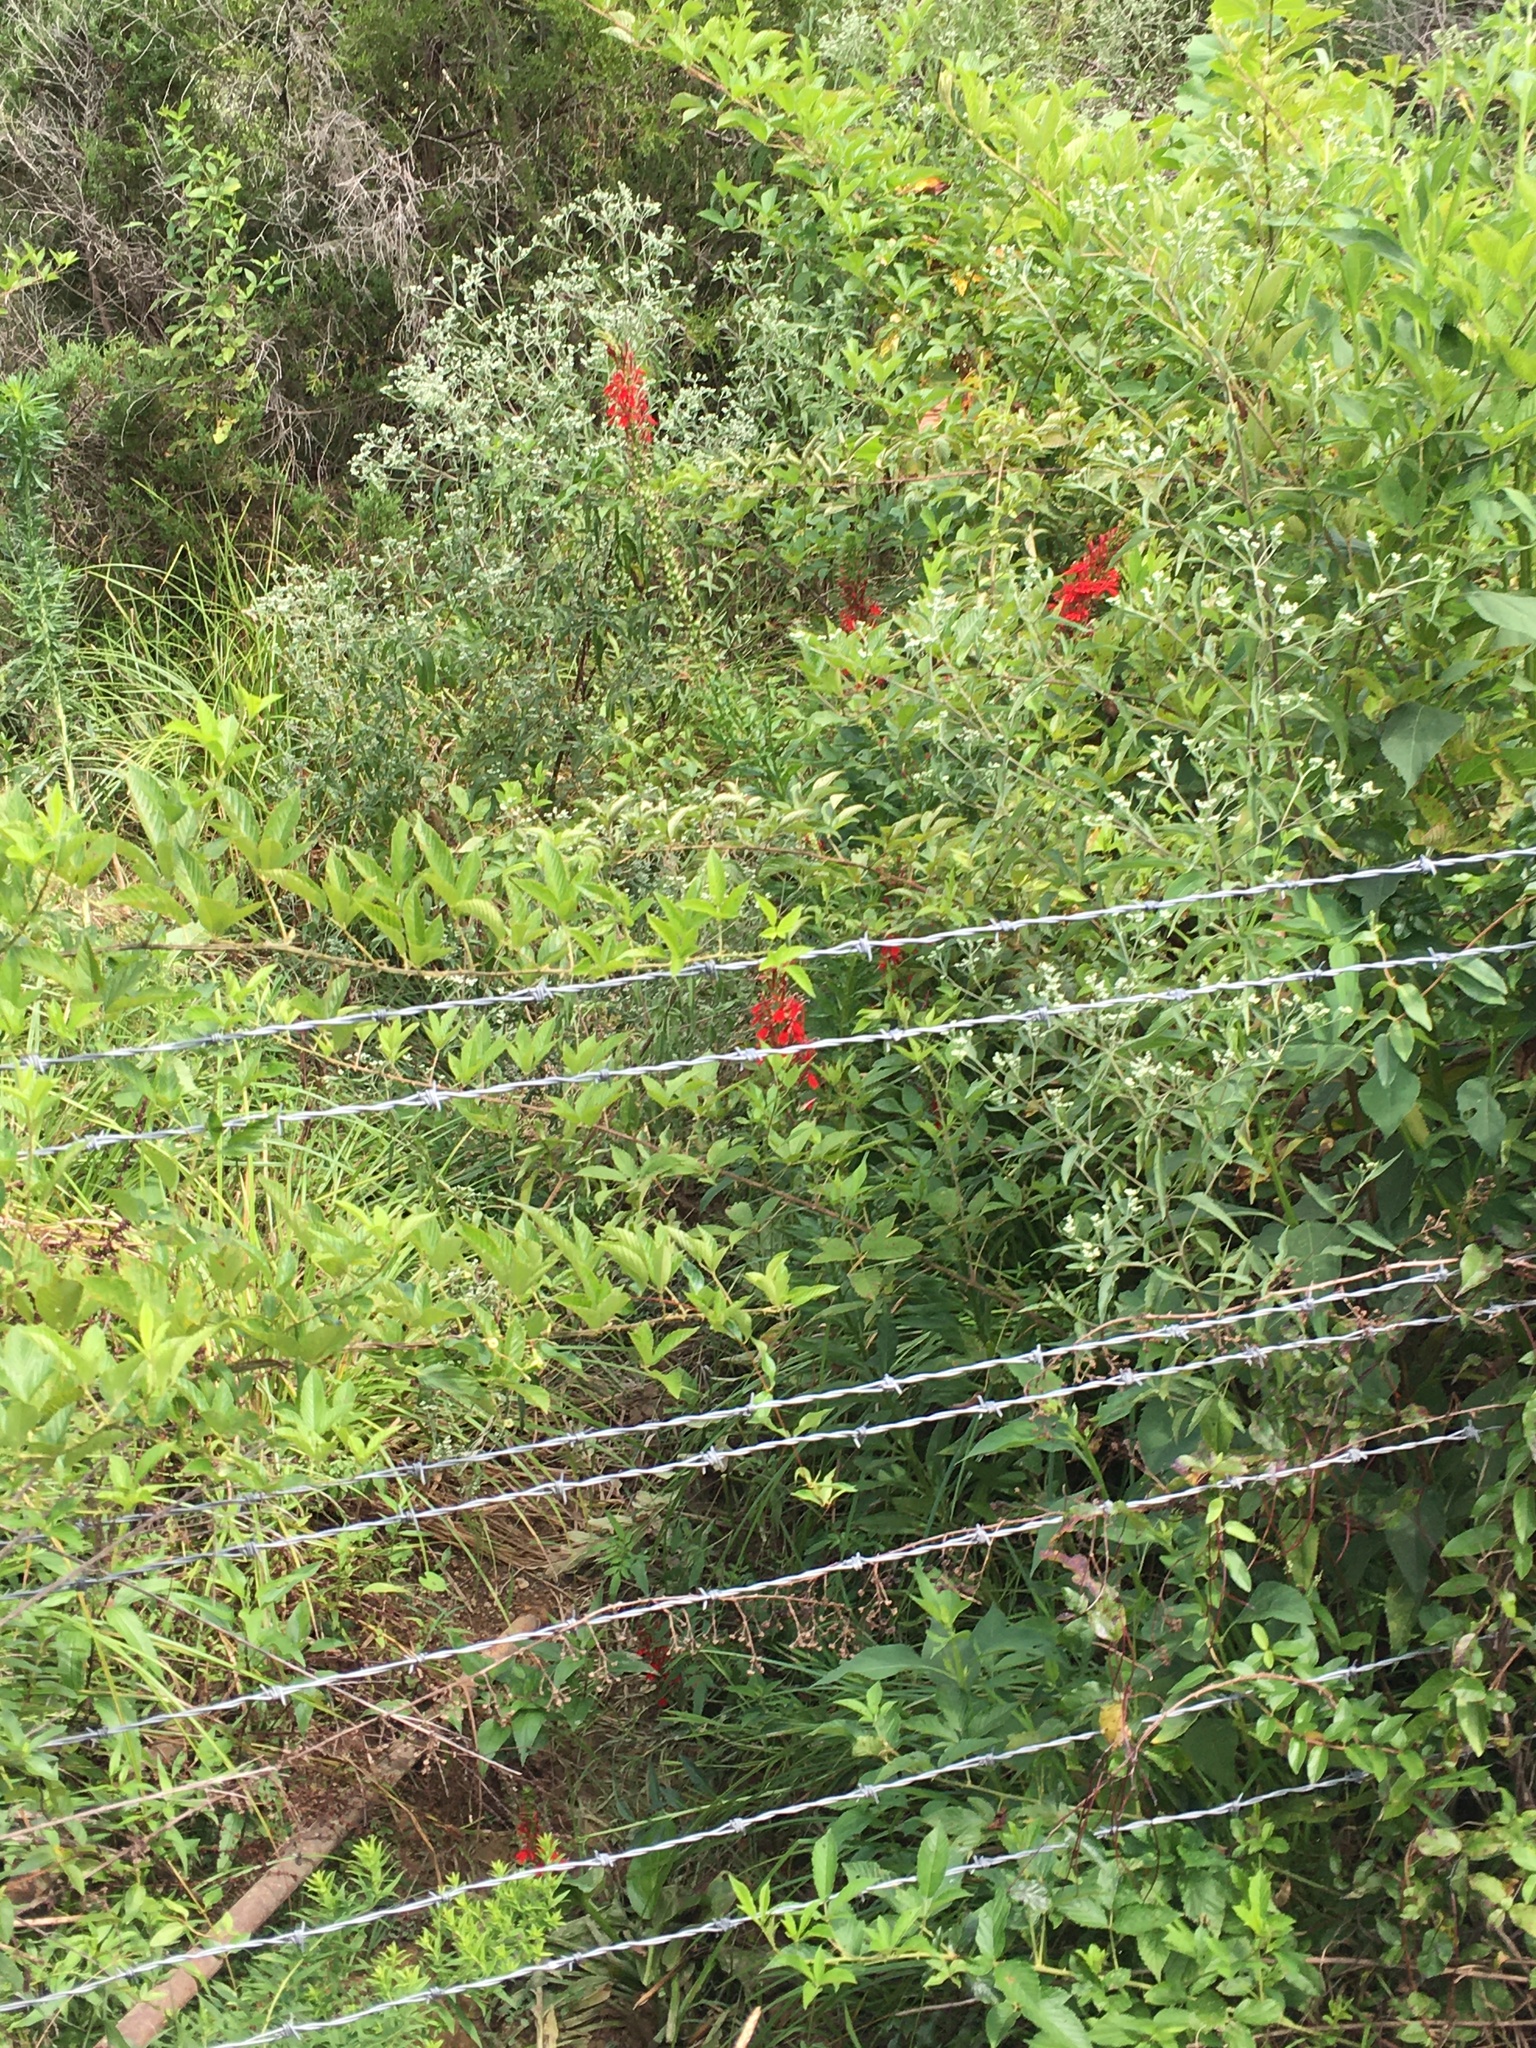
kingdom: Plantae
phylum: Tracheophyta
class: Magnoliopsida
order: Asterales
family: Campanulaceae
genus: Lobelia
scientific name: Lobelia cardinalis
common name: Cardinal flower
